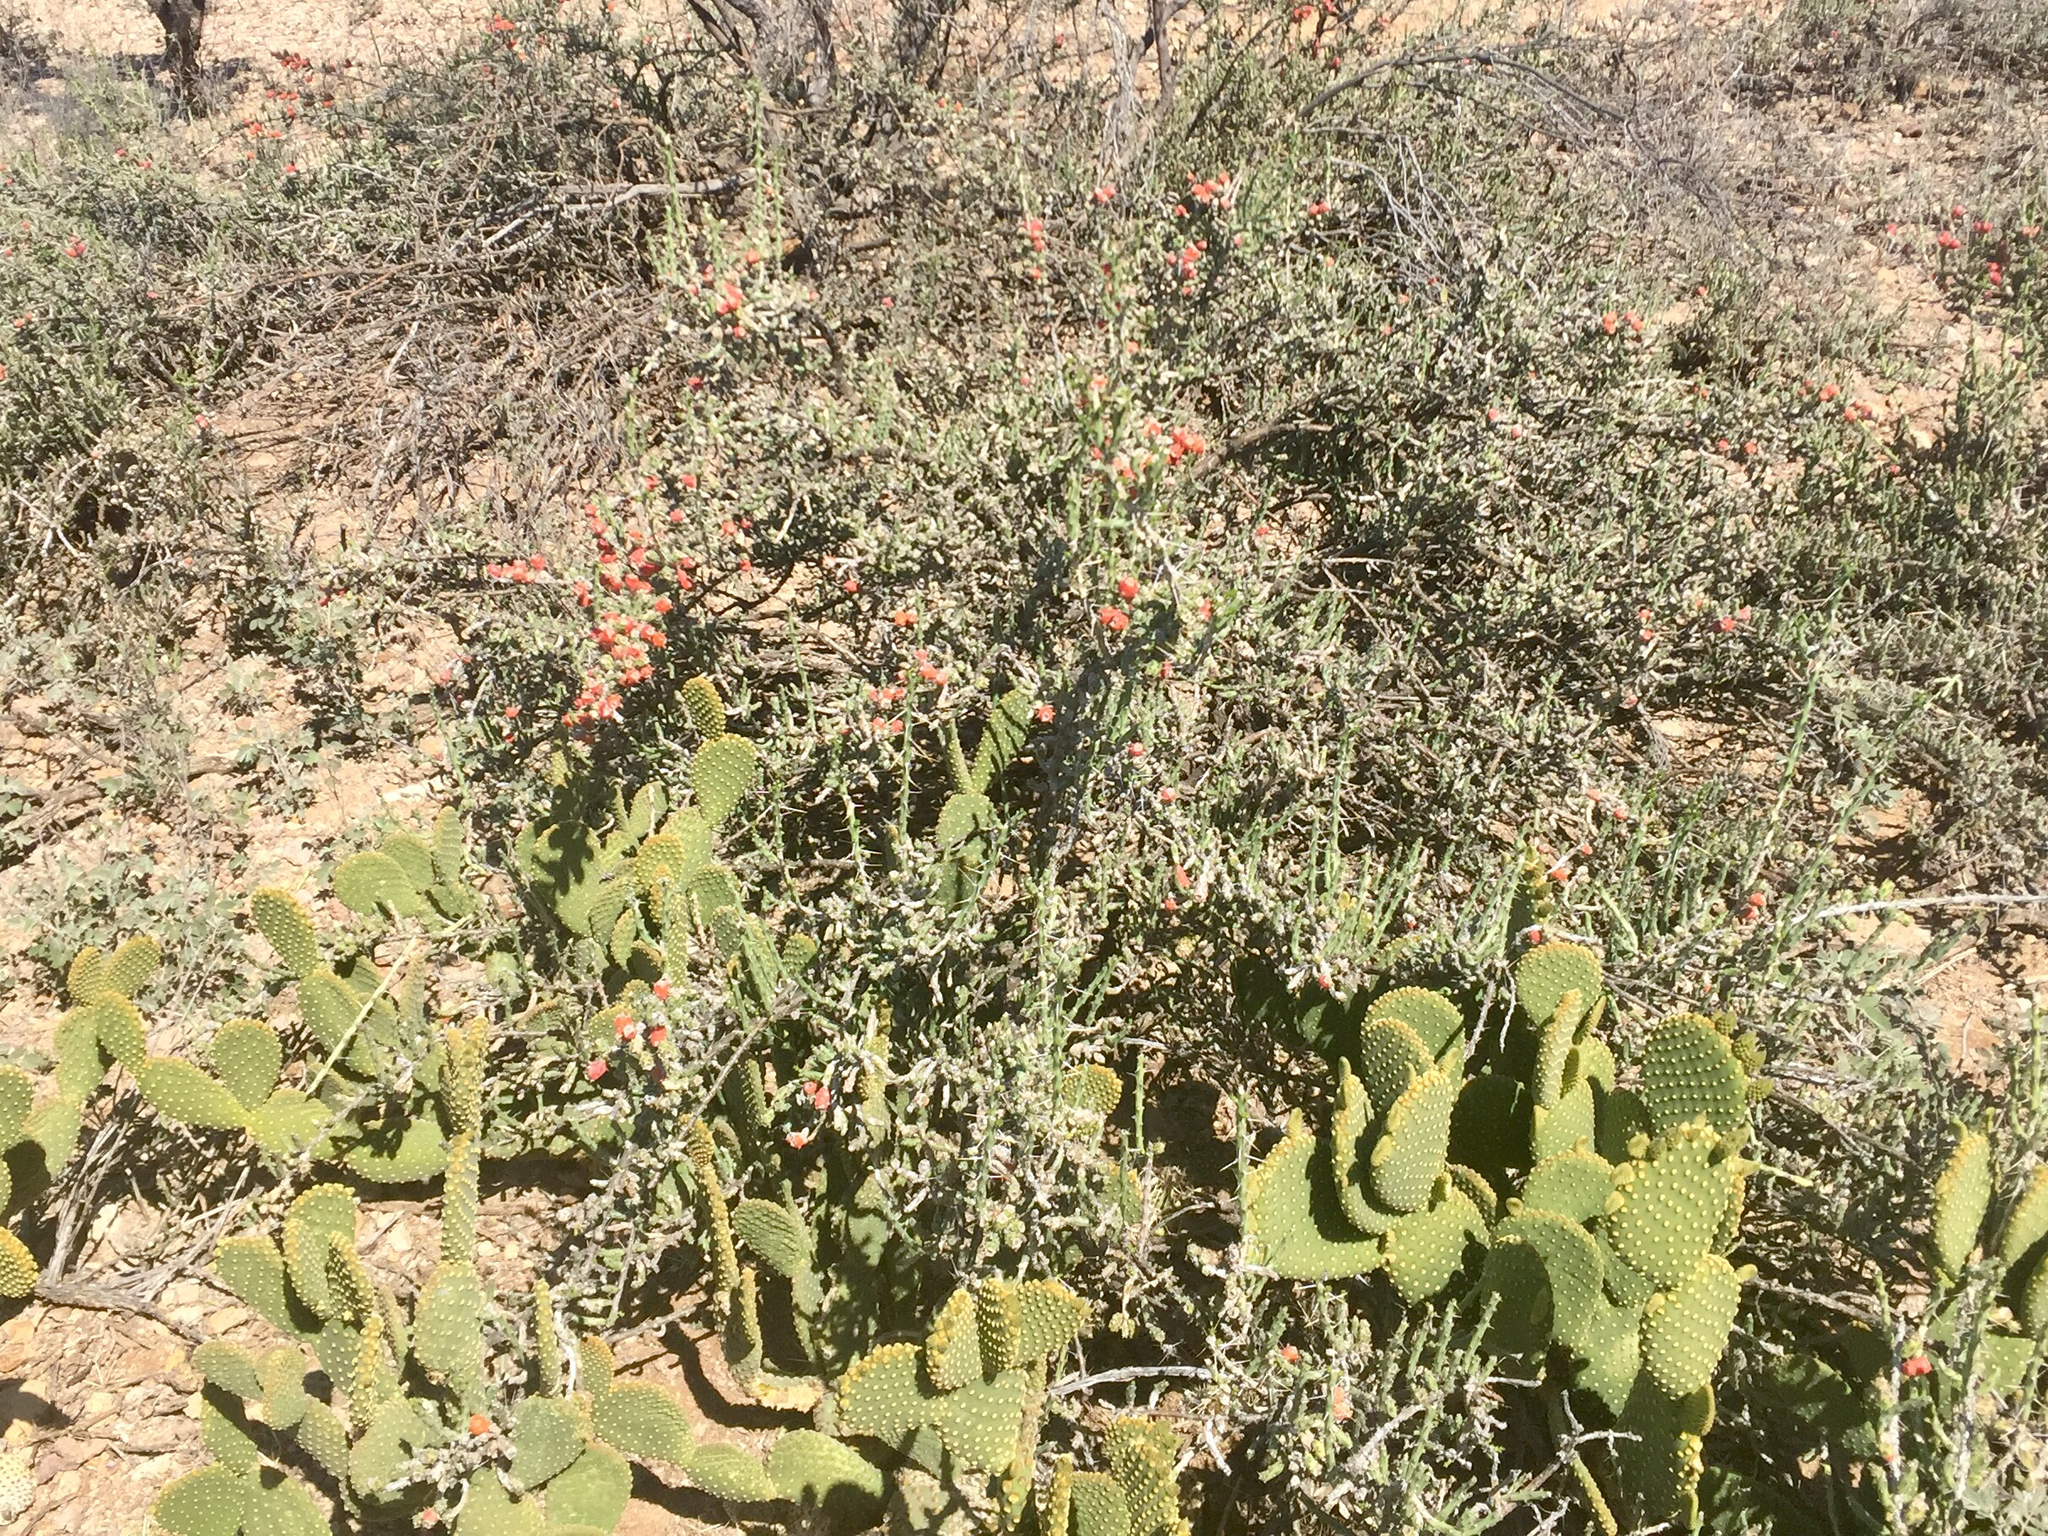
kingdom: Plantae
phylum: Tracheophyta
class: Magnoliopsida
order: Caryophyllales
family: Cactaceae
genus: Cylindropuntia
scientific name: Cylindropuntia leptocaulis
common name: Christmas cactus
